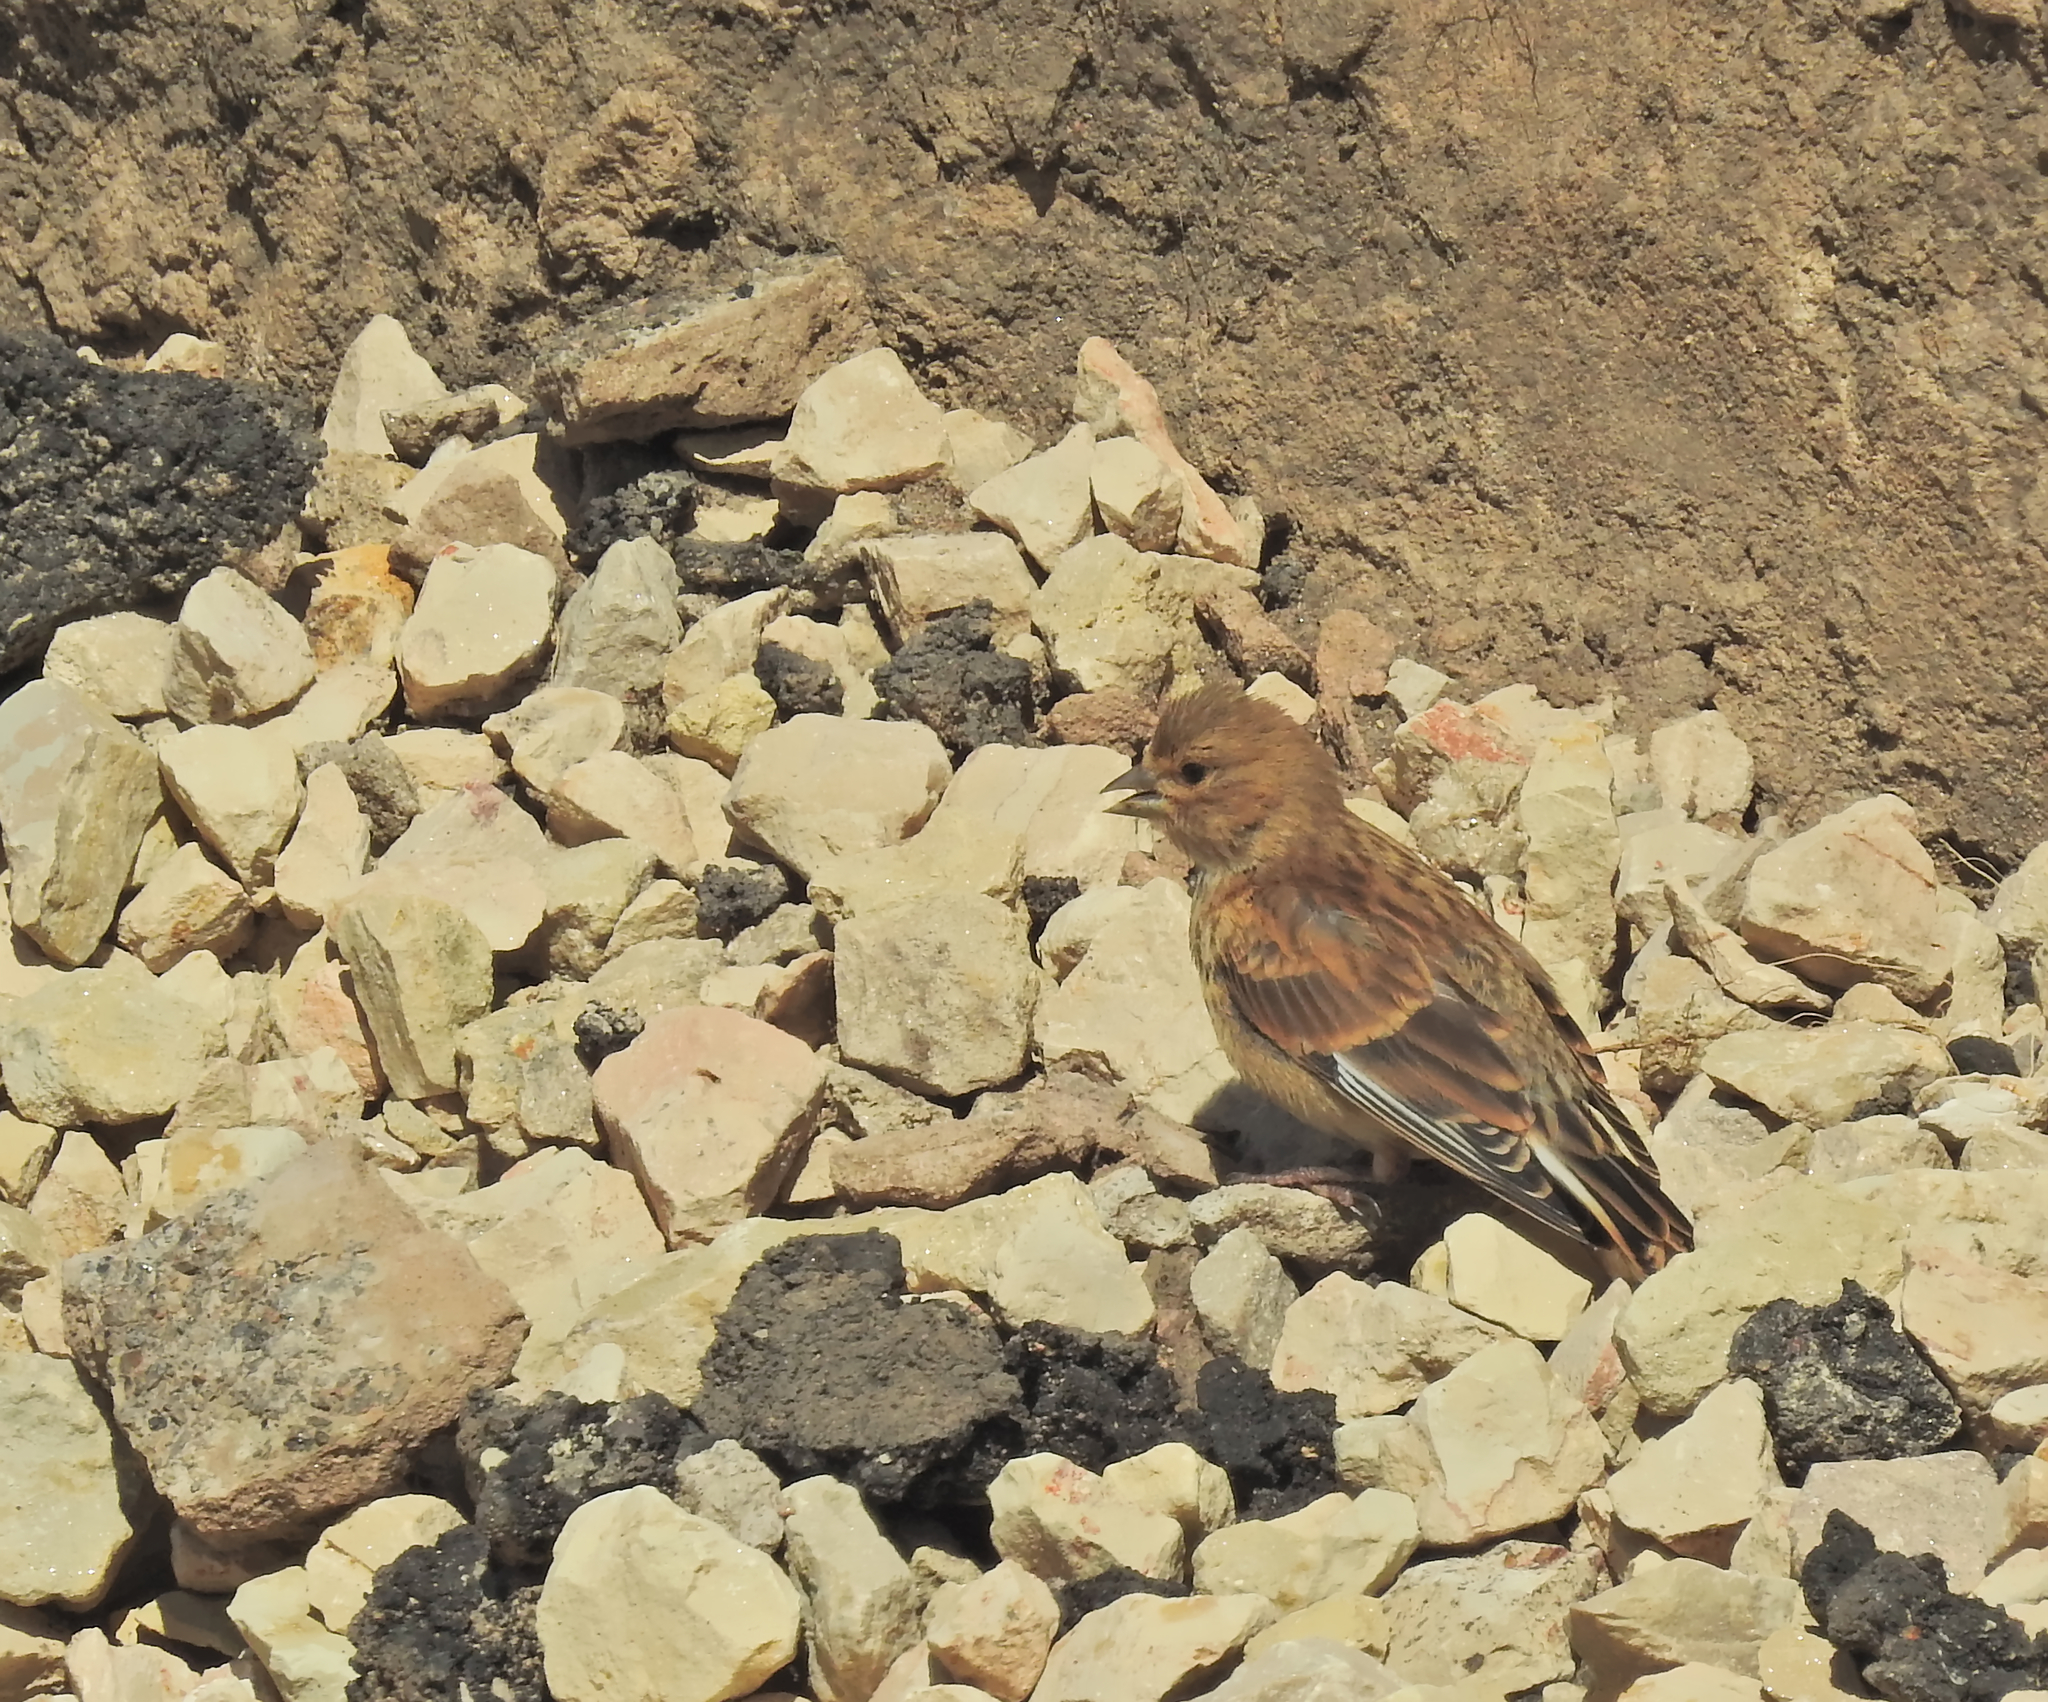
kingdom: Animalia
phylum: Chordata
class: Aves
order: Passeriformes
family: Fringillidae
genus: Linaria
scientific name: Linaria cannabina
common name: Common linnet
